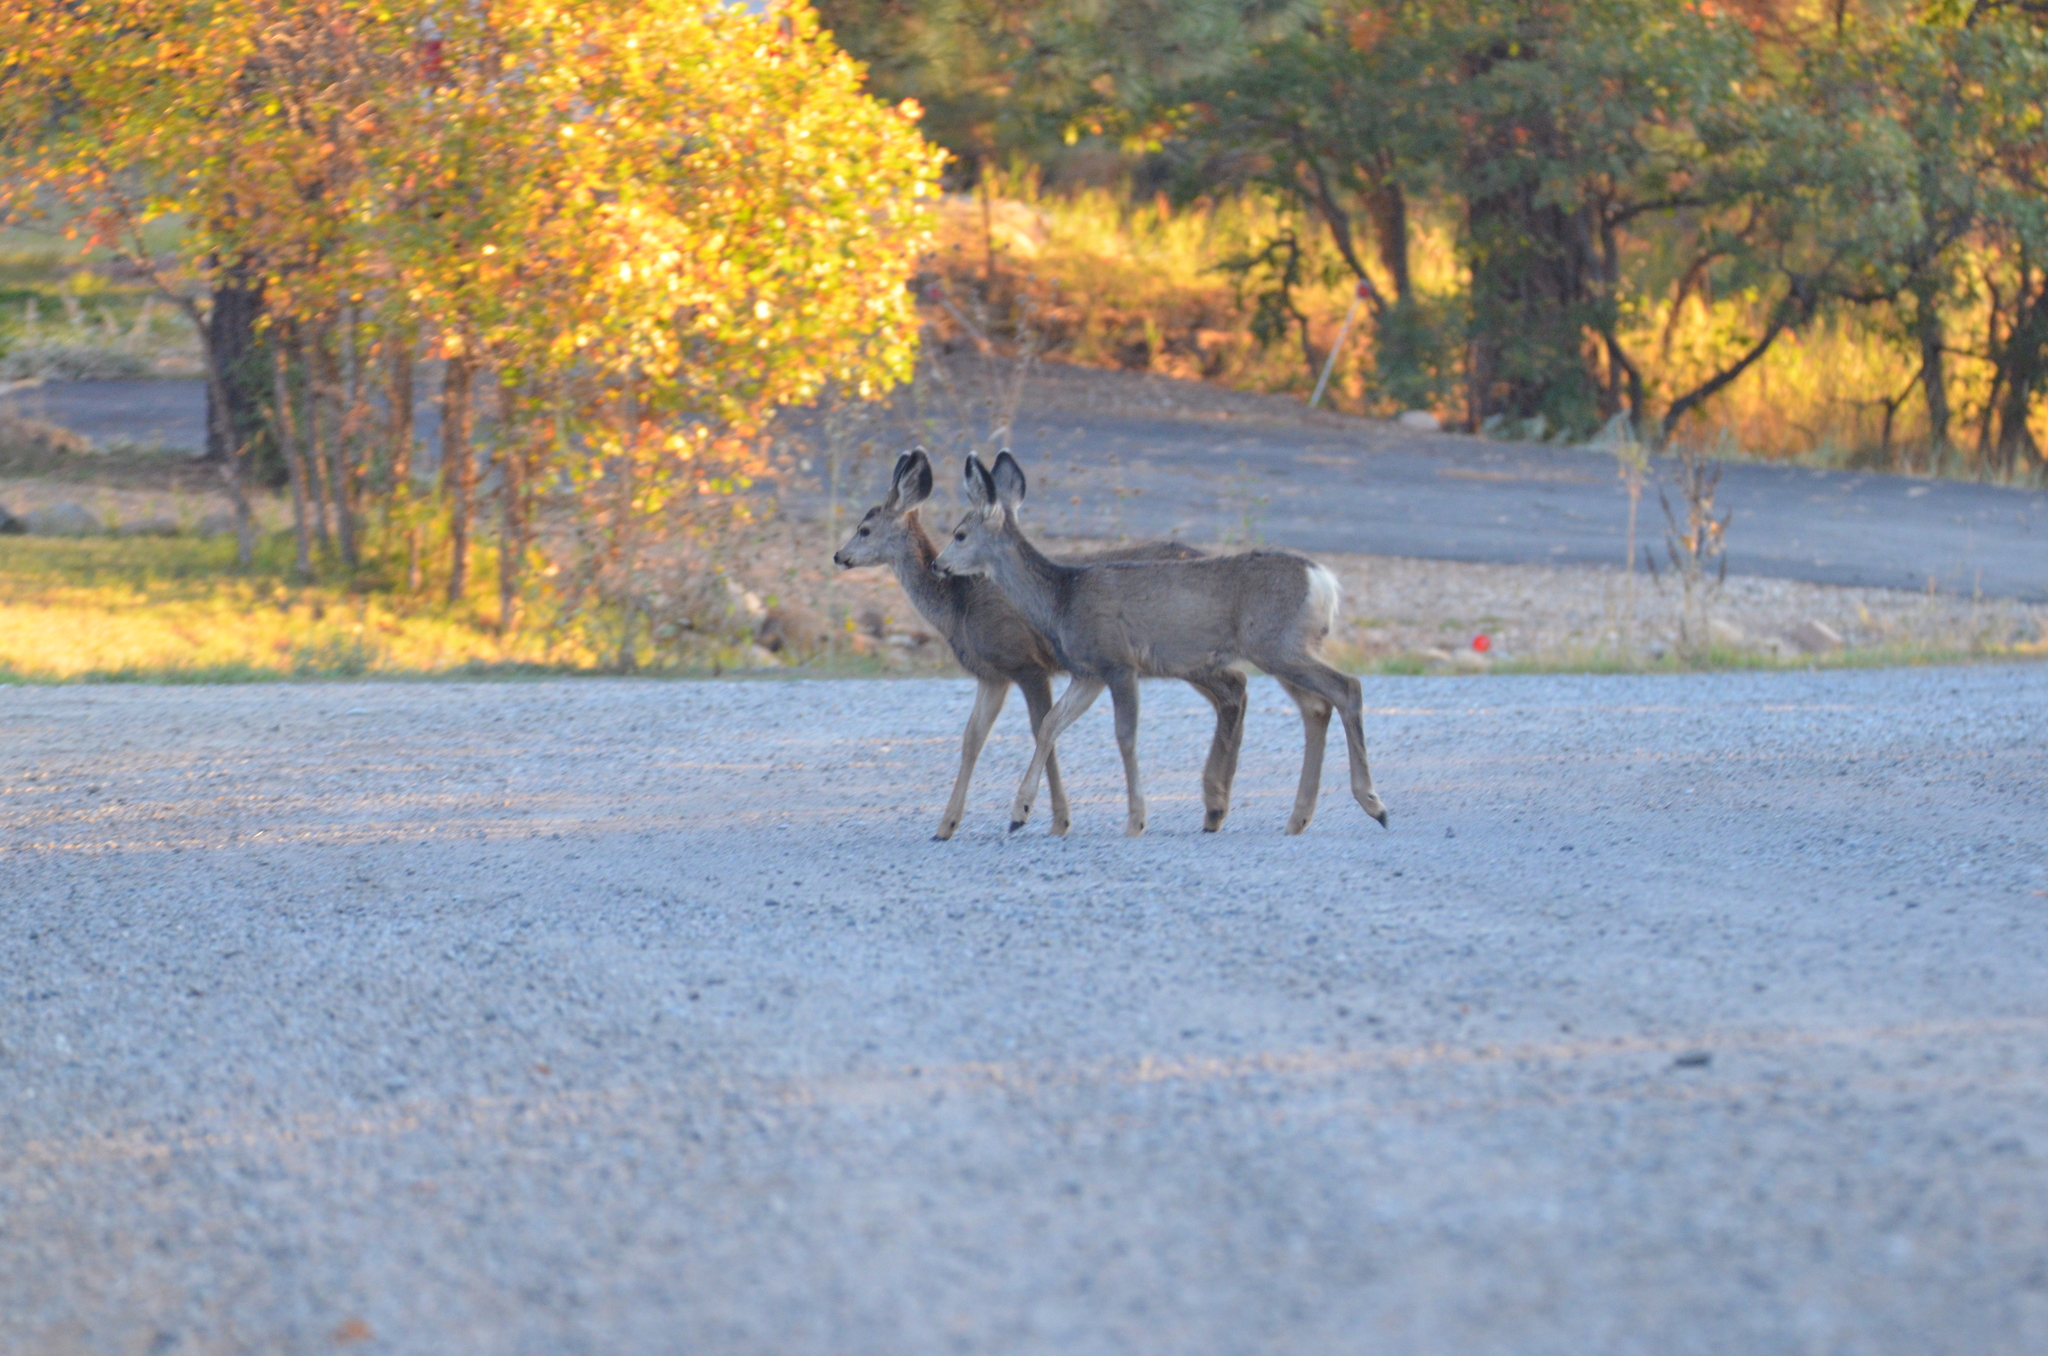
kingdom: Animalia
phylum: Chordata
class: Mammalia
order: Artiodactyla
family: Cervidae
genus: Odocoileus
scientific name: Odocoileus hemionus
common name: Mule deer
